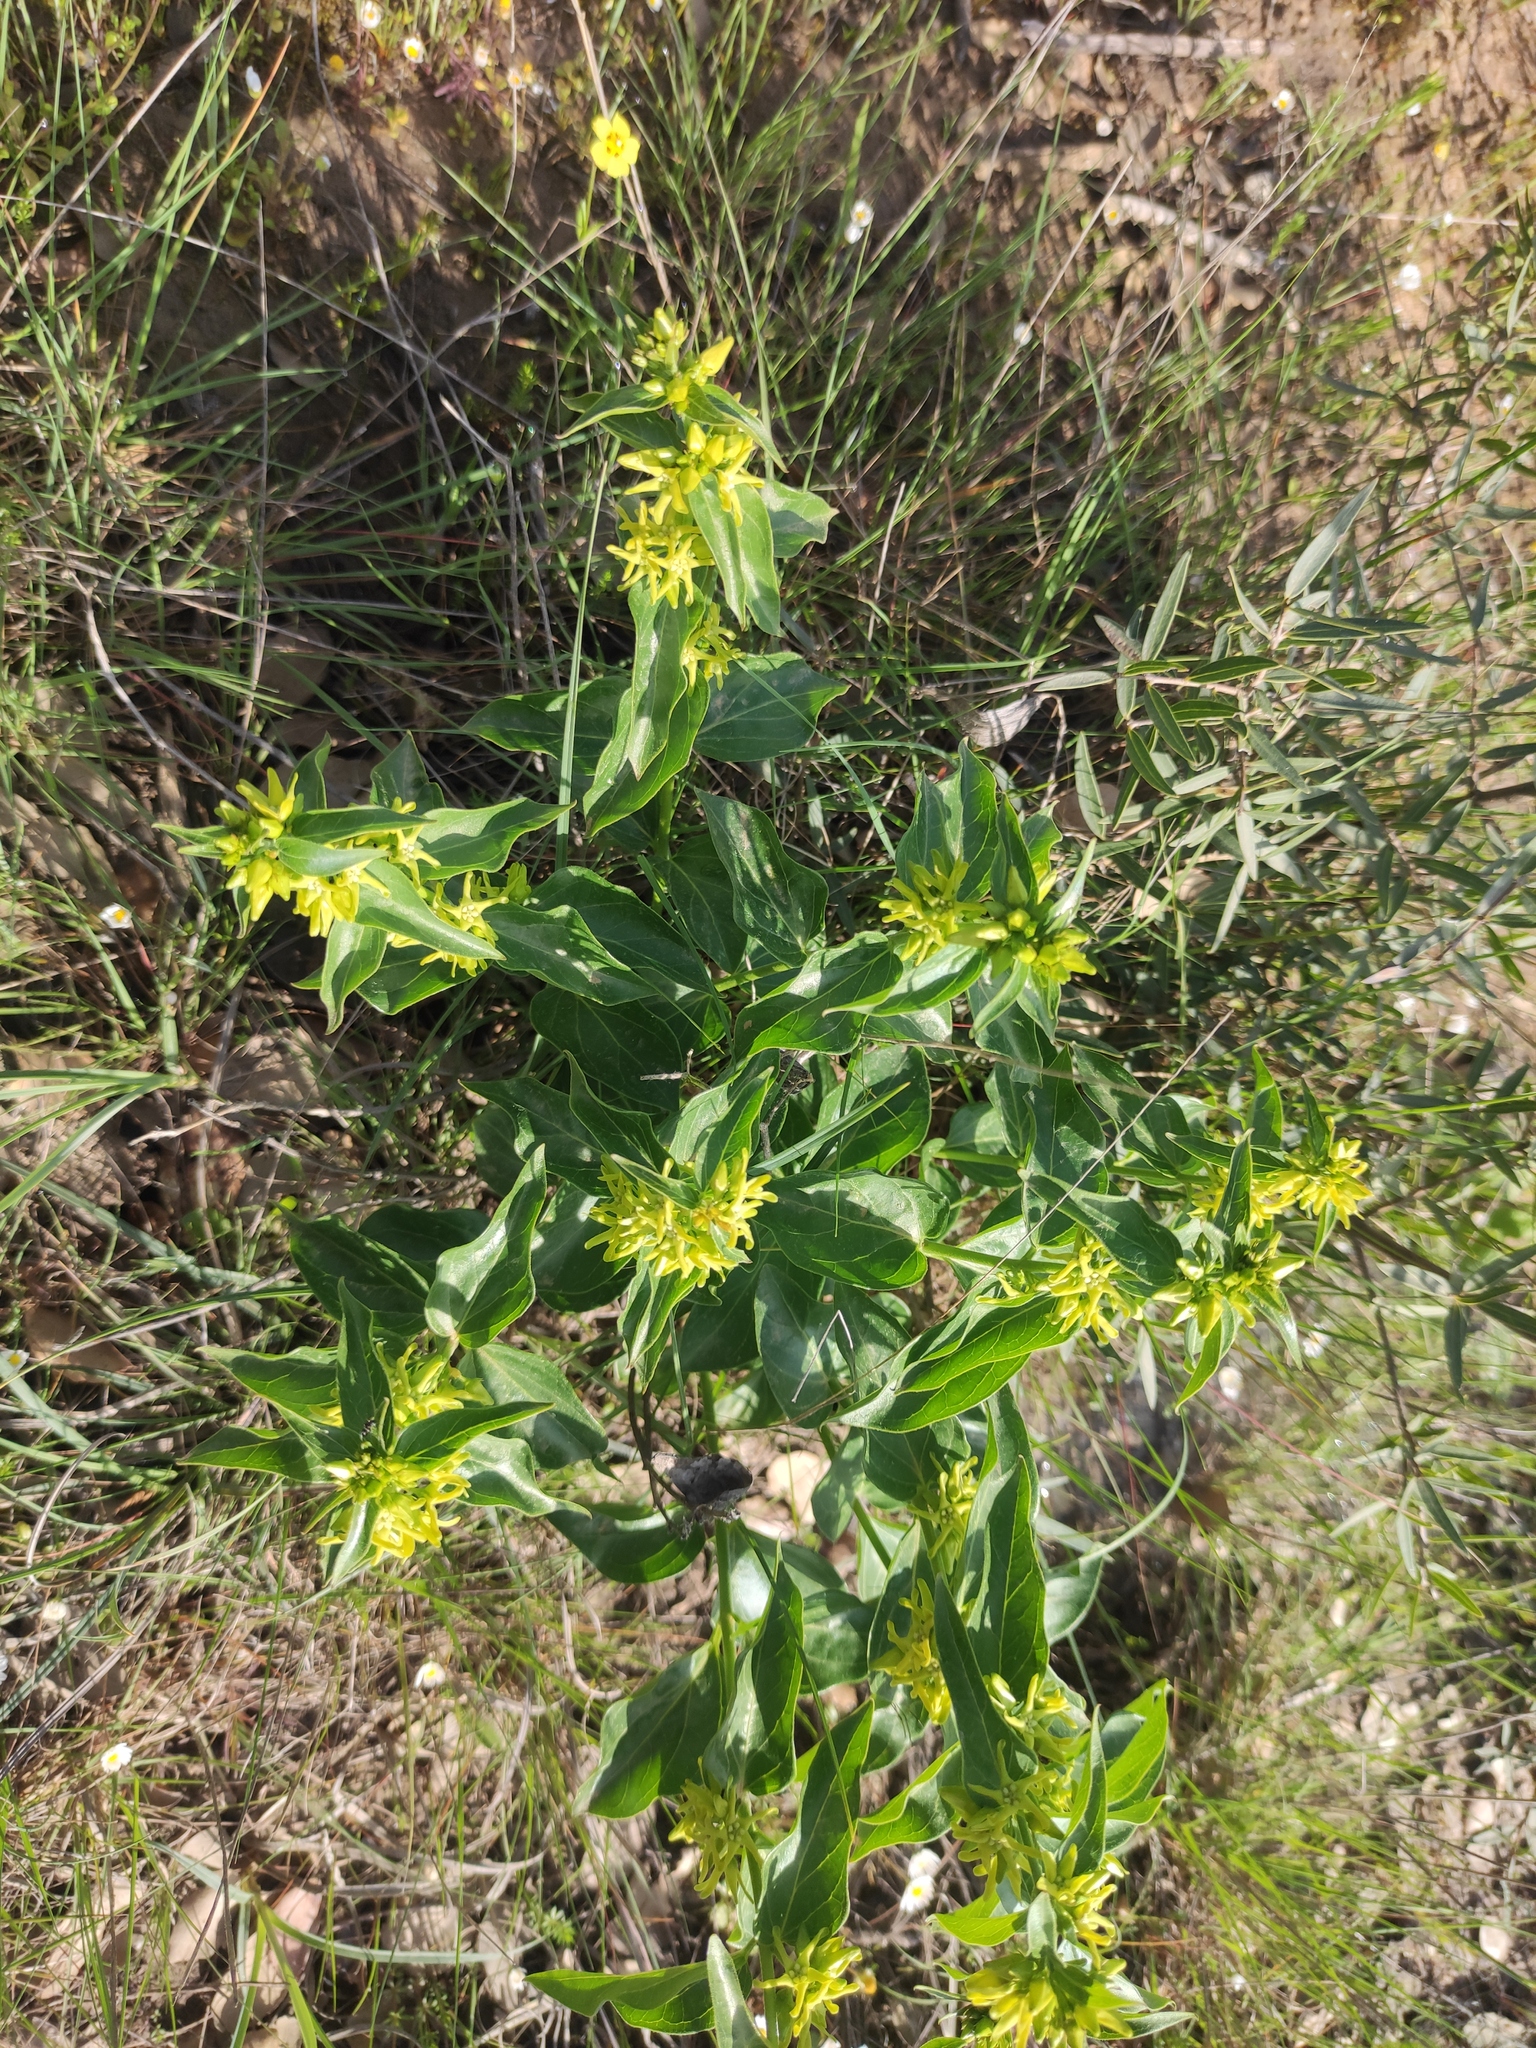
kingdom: Plantae
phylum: Tracheophyta
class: Magnoliopsida
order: Gentianales
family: Apocynaceae
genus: Vincetoxicum
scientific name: Vincetoxicum hirundinaria
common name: White swallowwort
